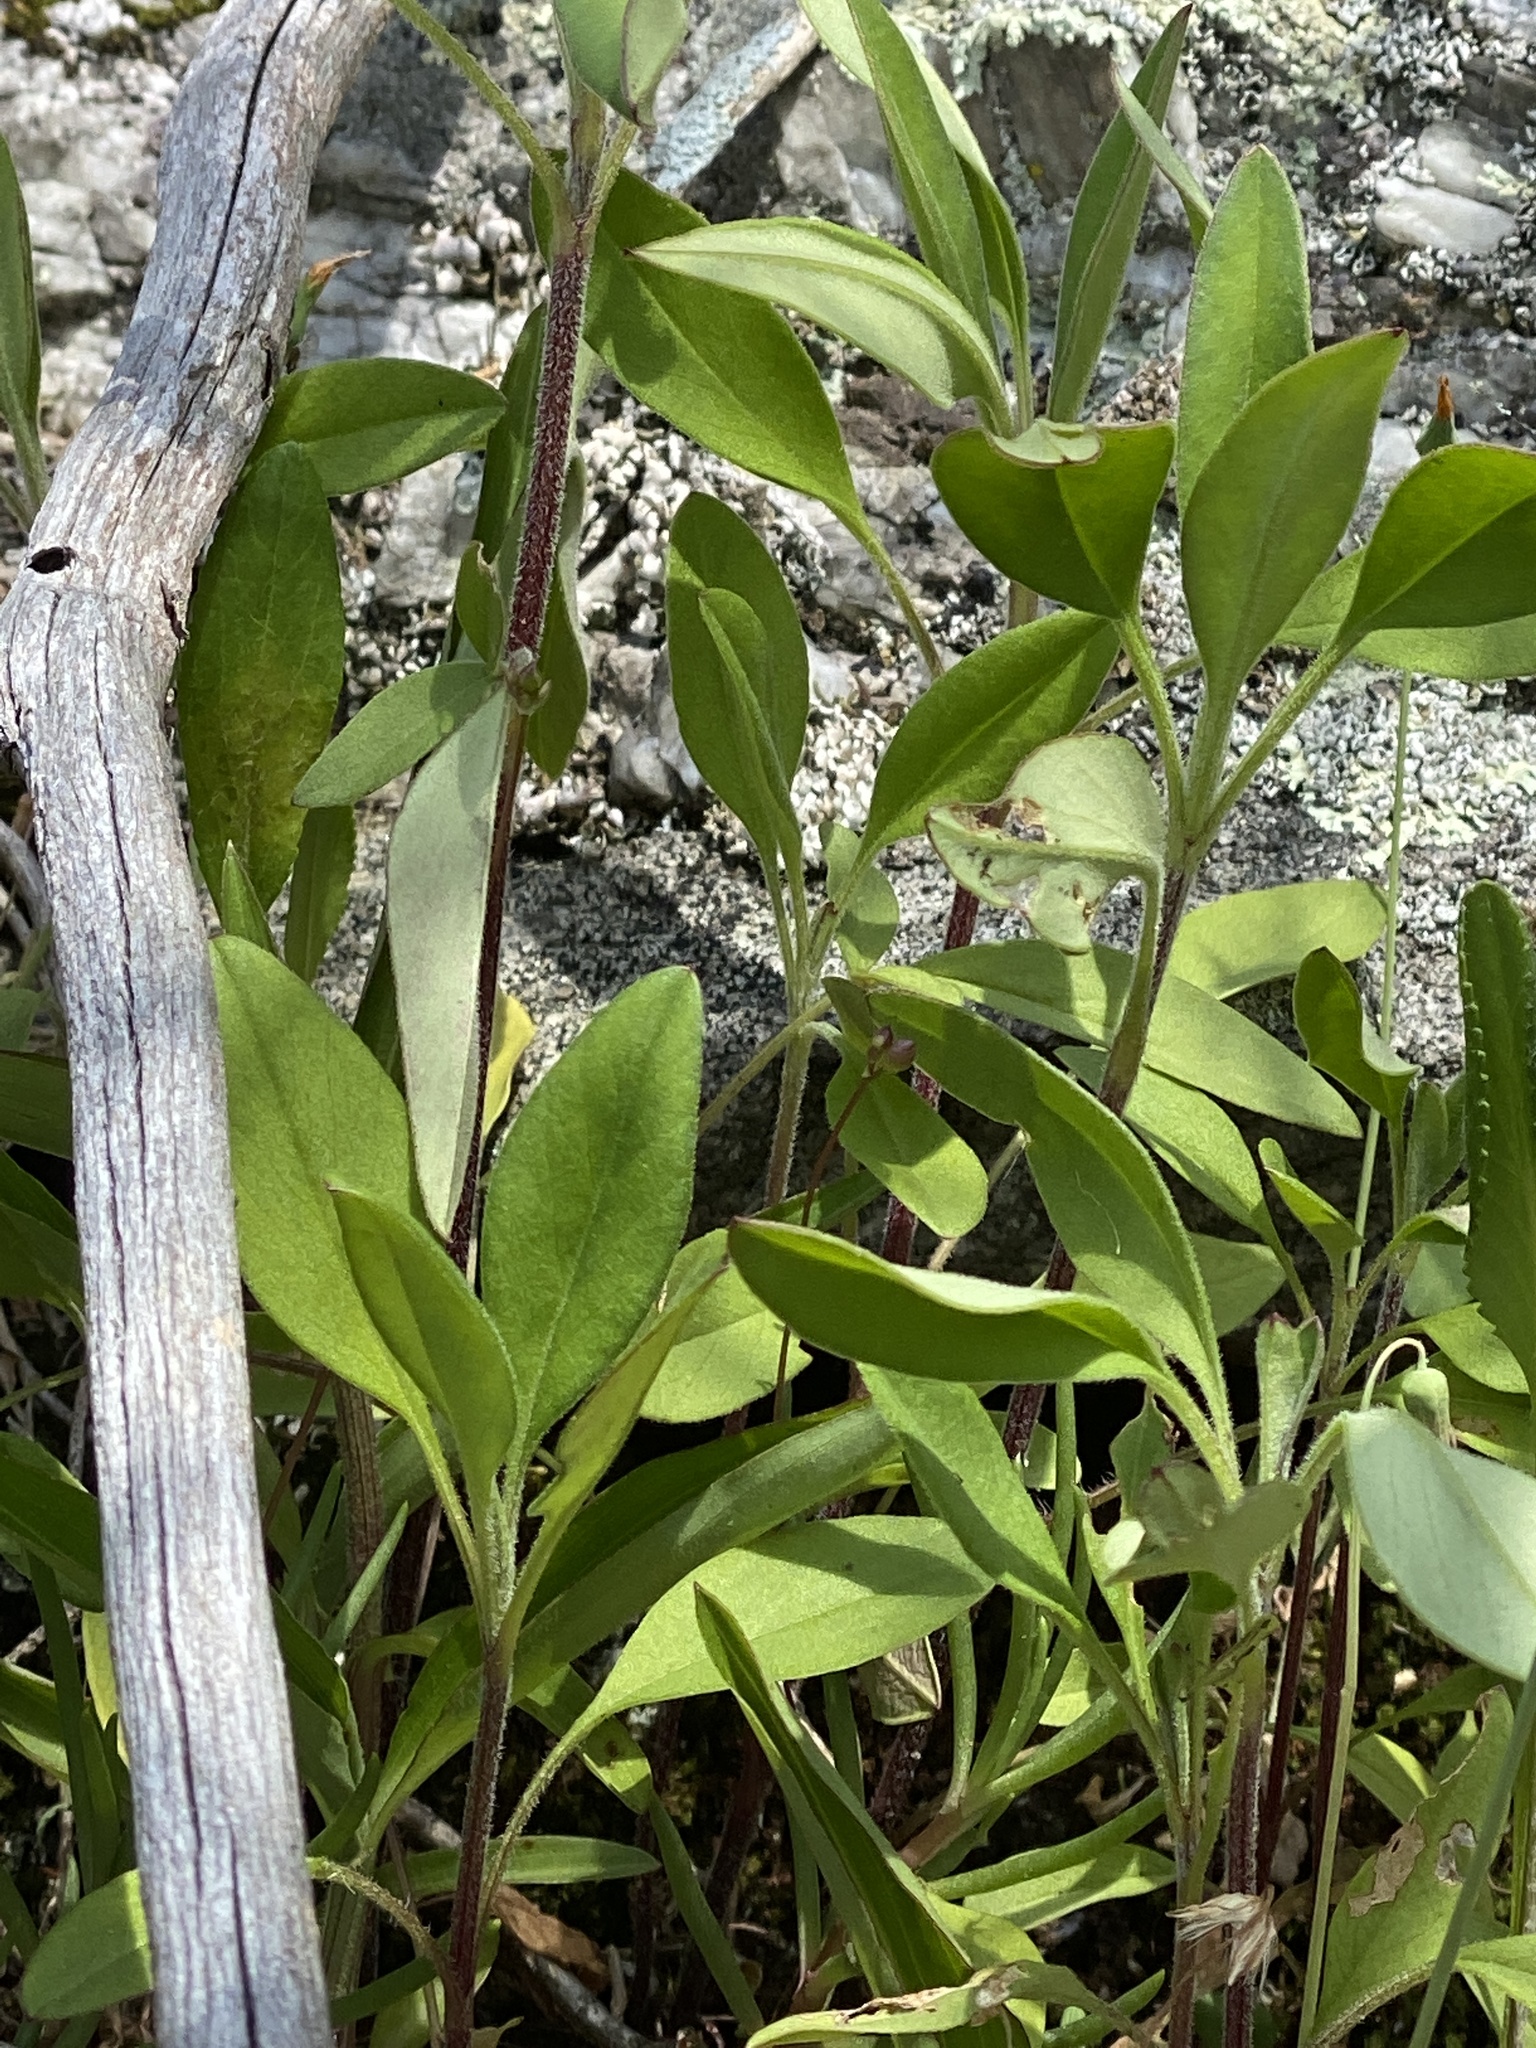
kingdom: Plantae
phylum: Tracheophyta
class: Magnoliopsida
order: Asterales
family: Asteraceae
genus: Coreopsis
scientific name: Coreopsis pubescens
